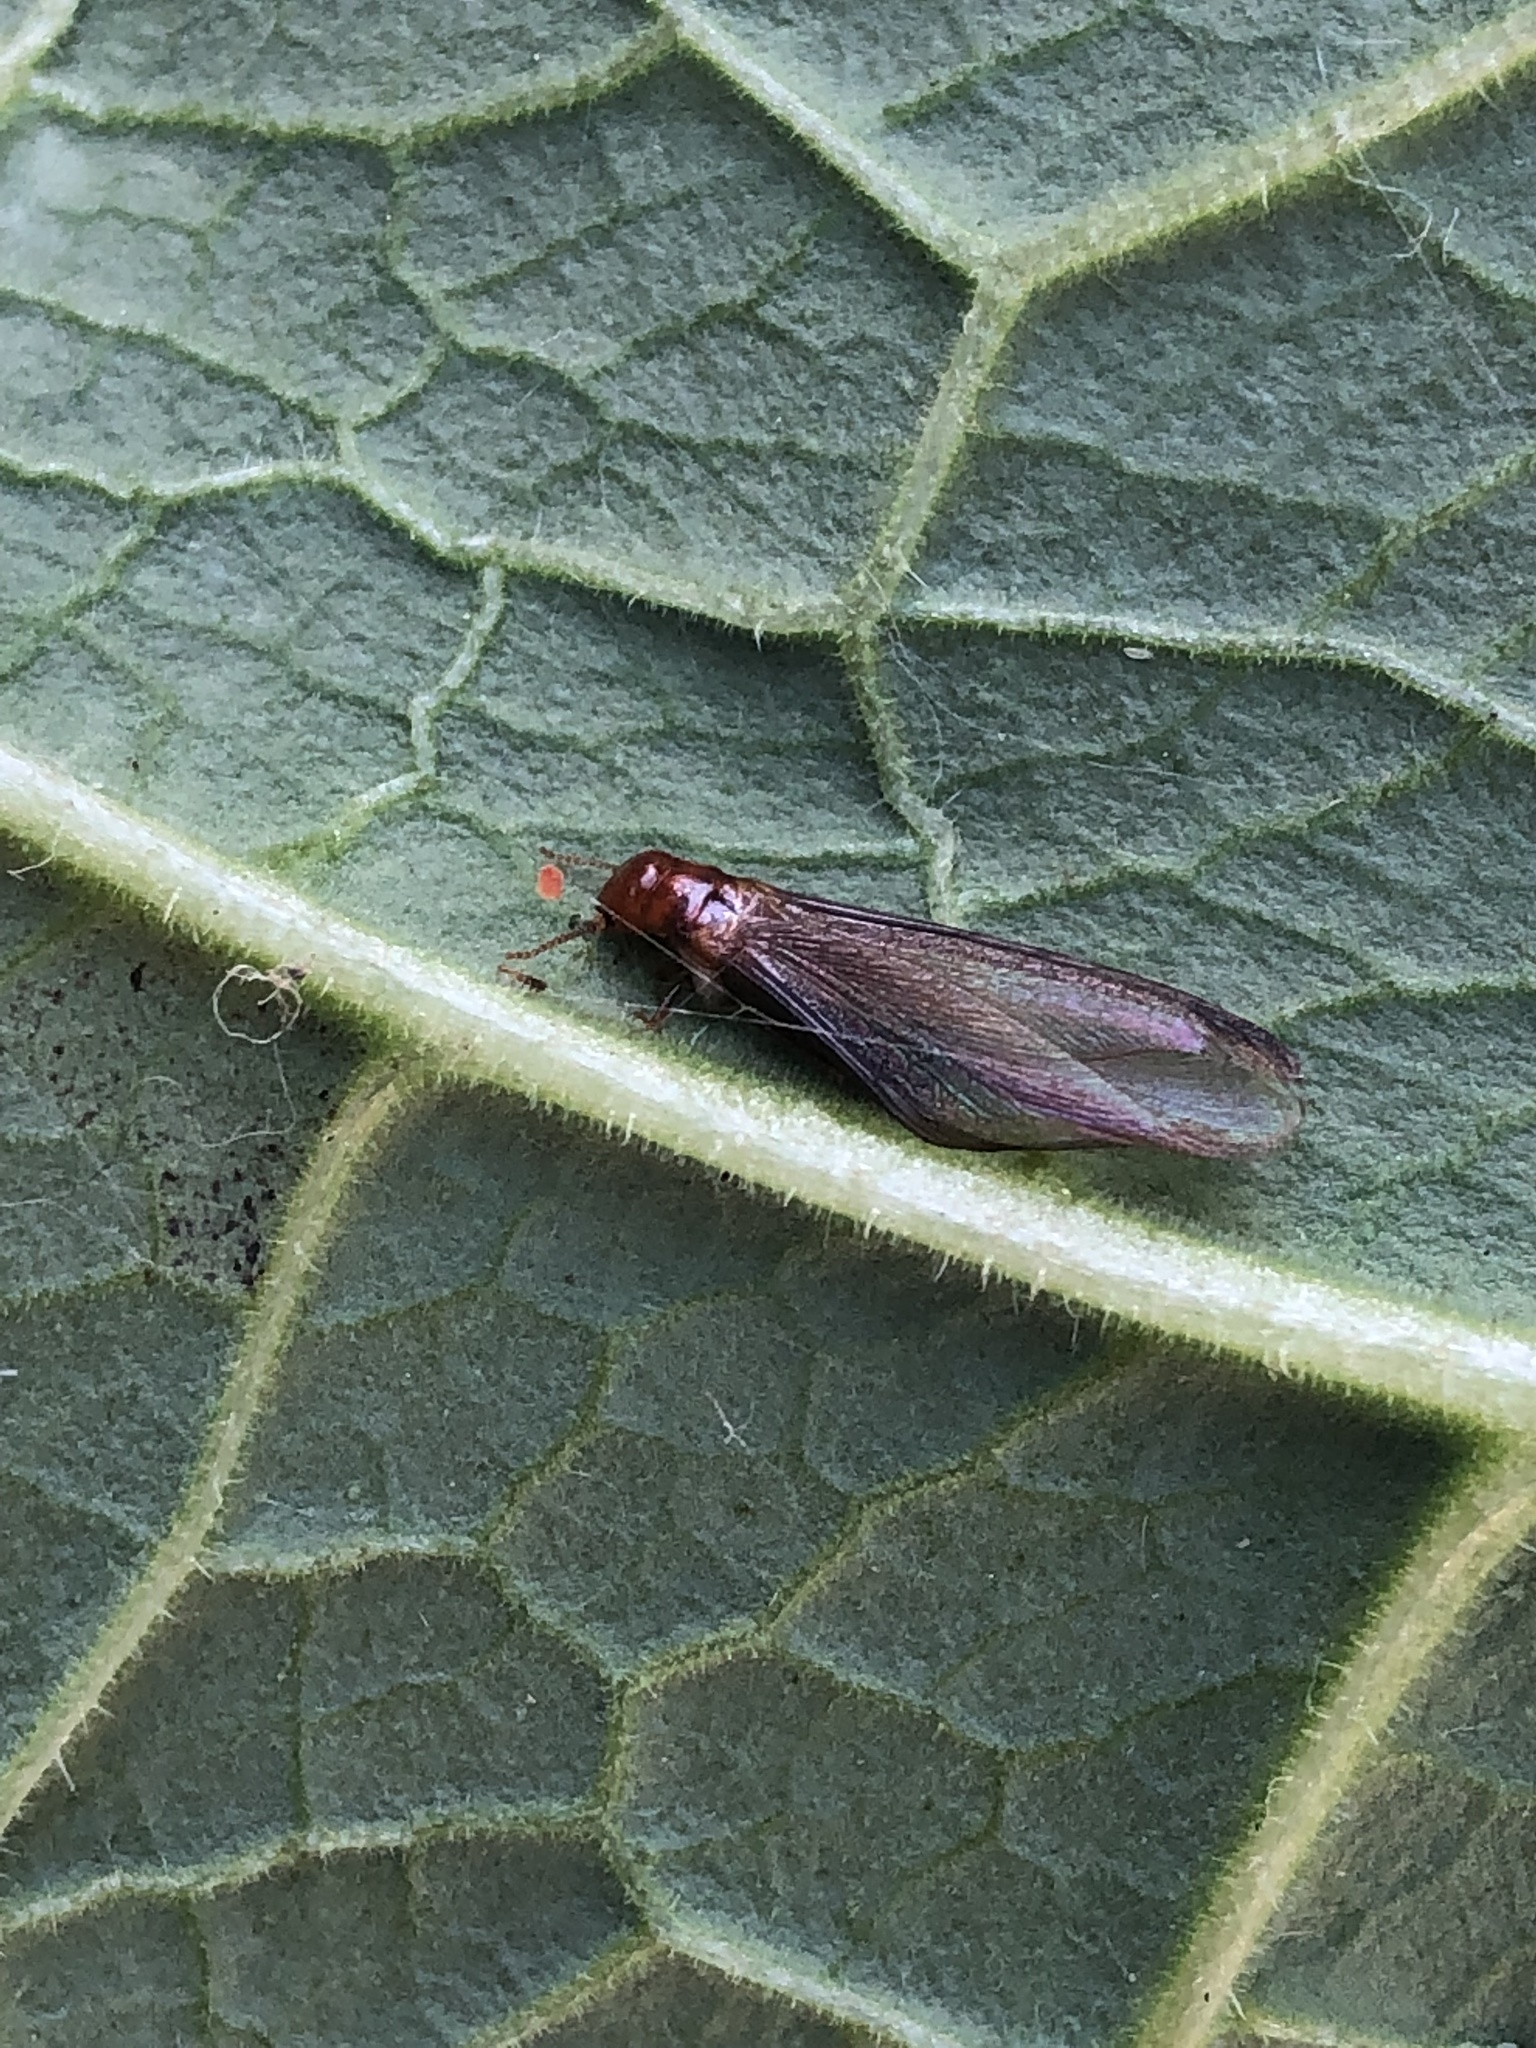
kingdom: Animalia
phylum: Arthropoda
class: Insecta
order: Blattodea
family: Kalotermitidae
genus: Incisitermes
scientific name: Incisitermes minor
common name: Termite
